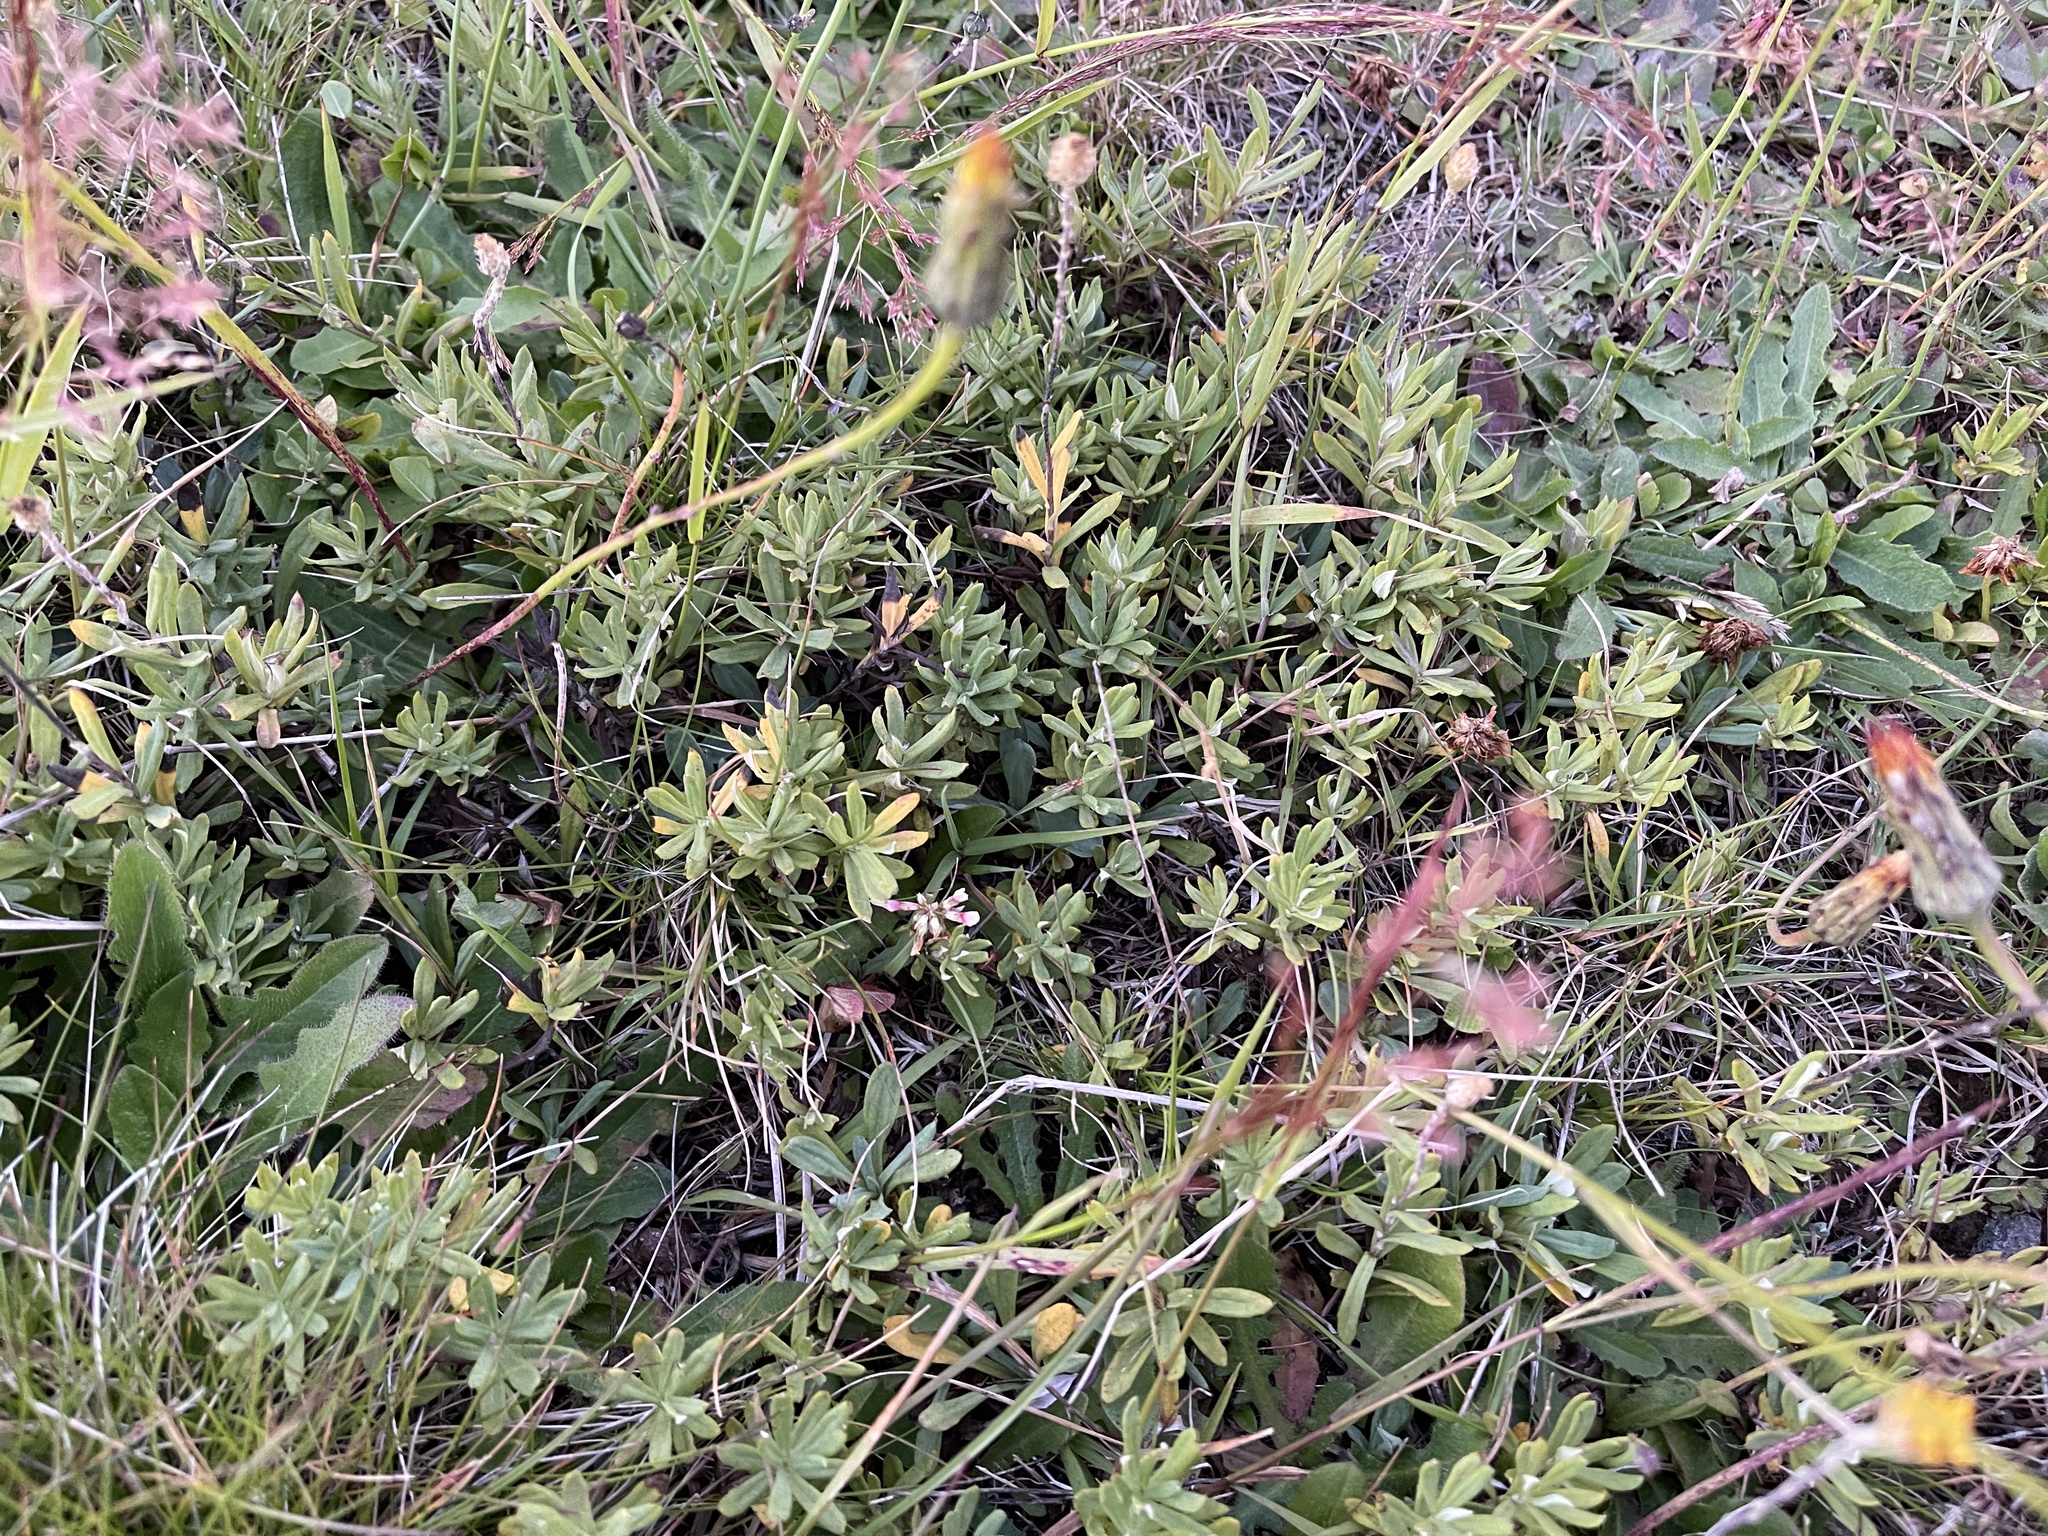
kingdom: Plantae
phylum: Tracheophyta
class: Magnoliopsida
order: Asterales
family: Asteraceae
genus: Leptorhynchos
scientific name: Leptorhynchos squamatus
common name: Scaly-buttons
